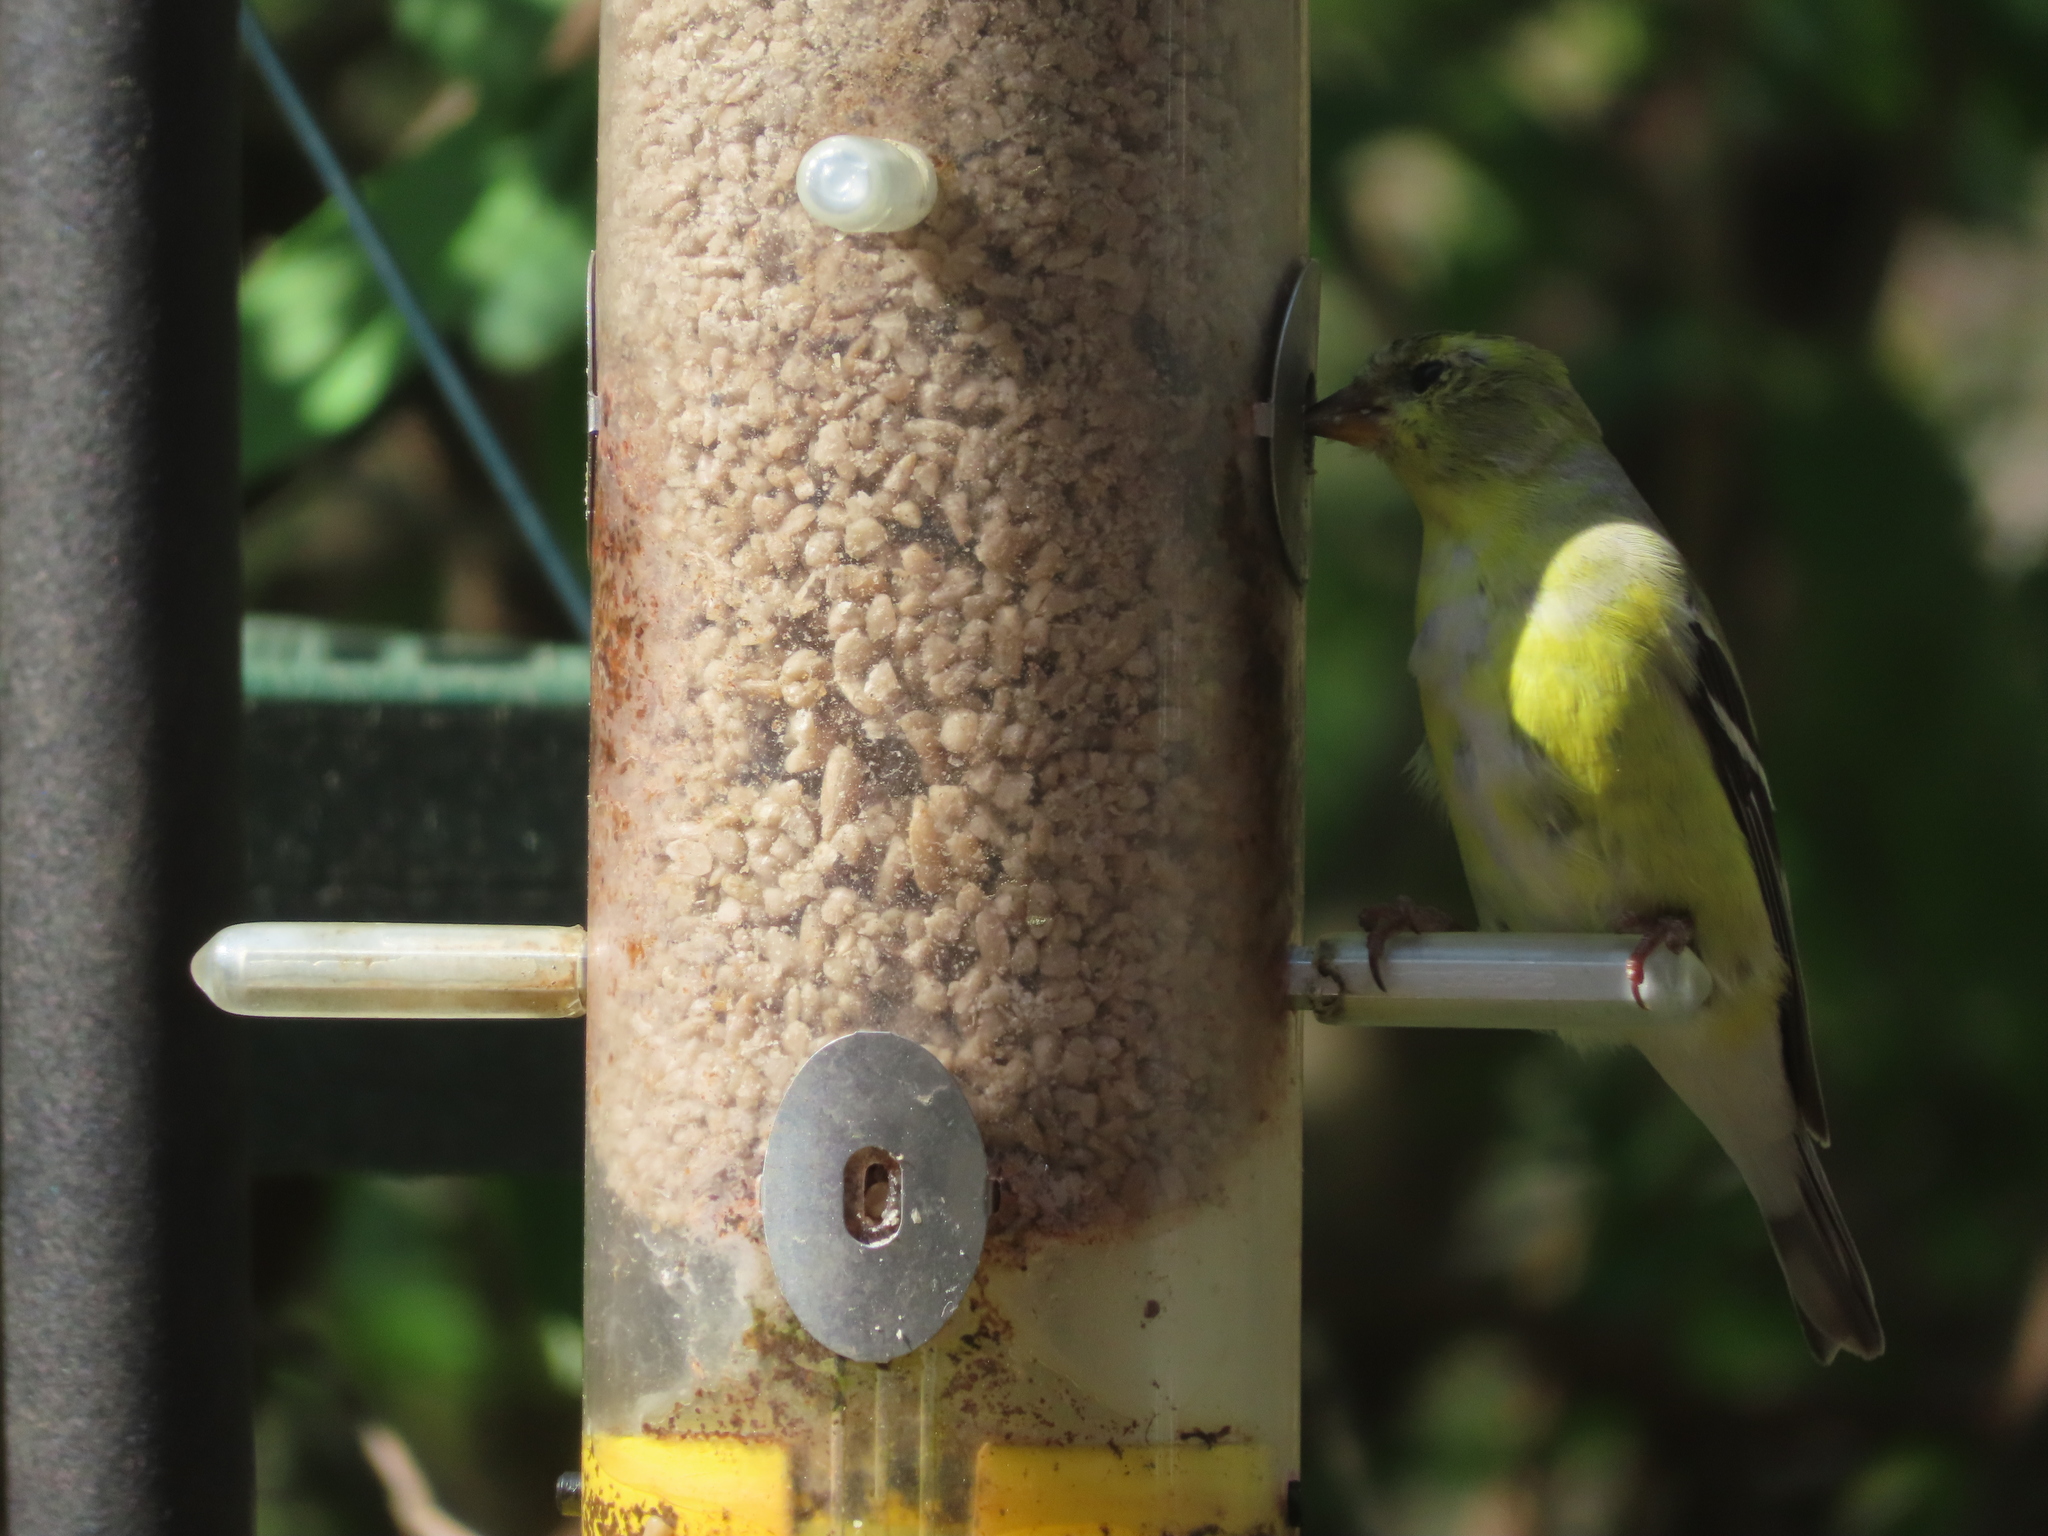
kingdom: Animalia
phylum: Chordata
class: Aves
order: Passeriformes
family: Fringillidae
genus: Spinus
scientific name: Spinus tristis
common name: American goldfinch
